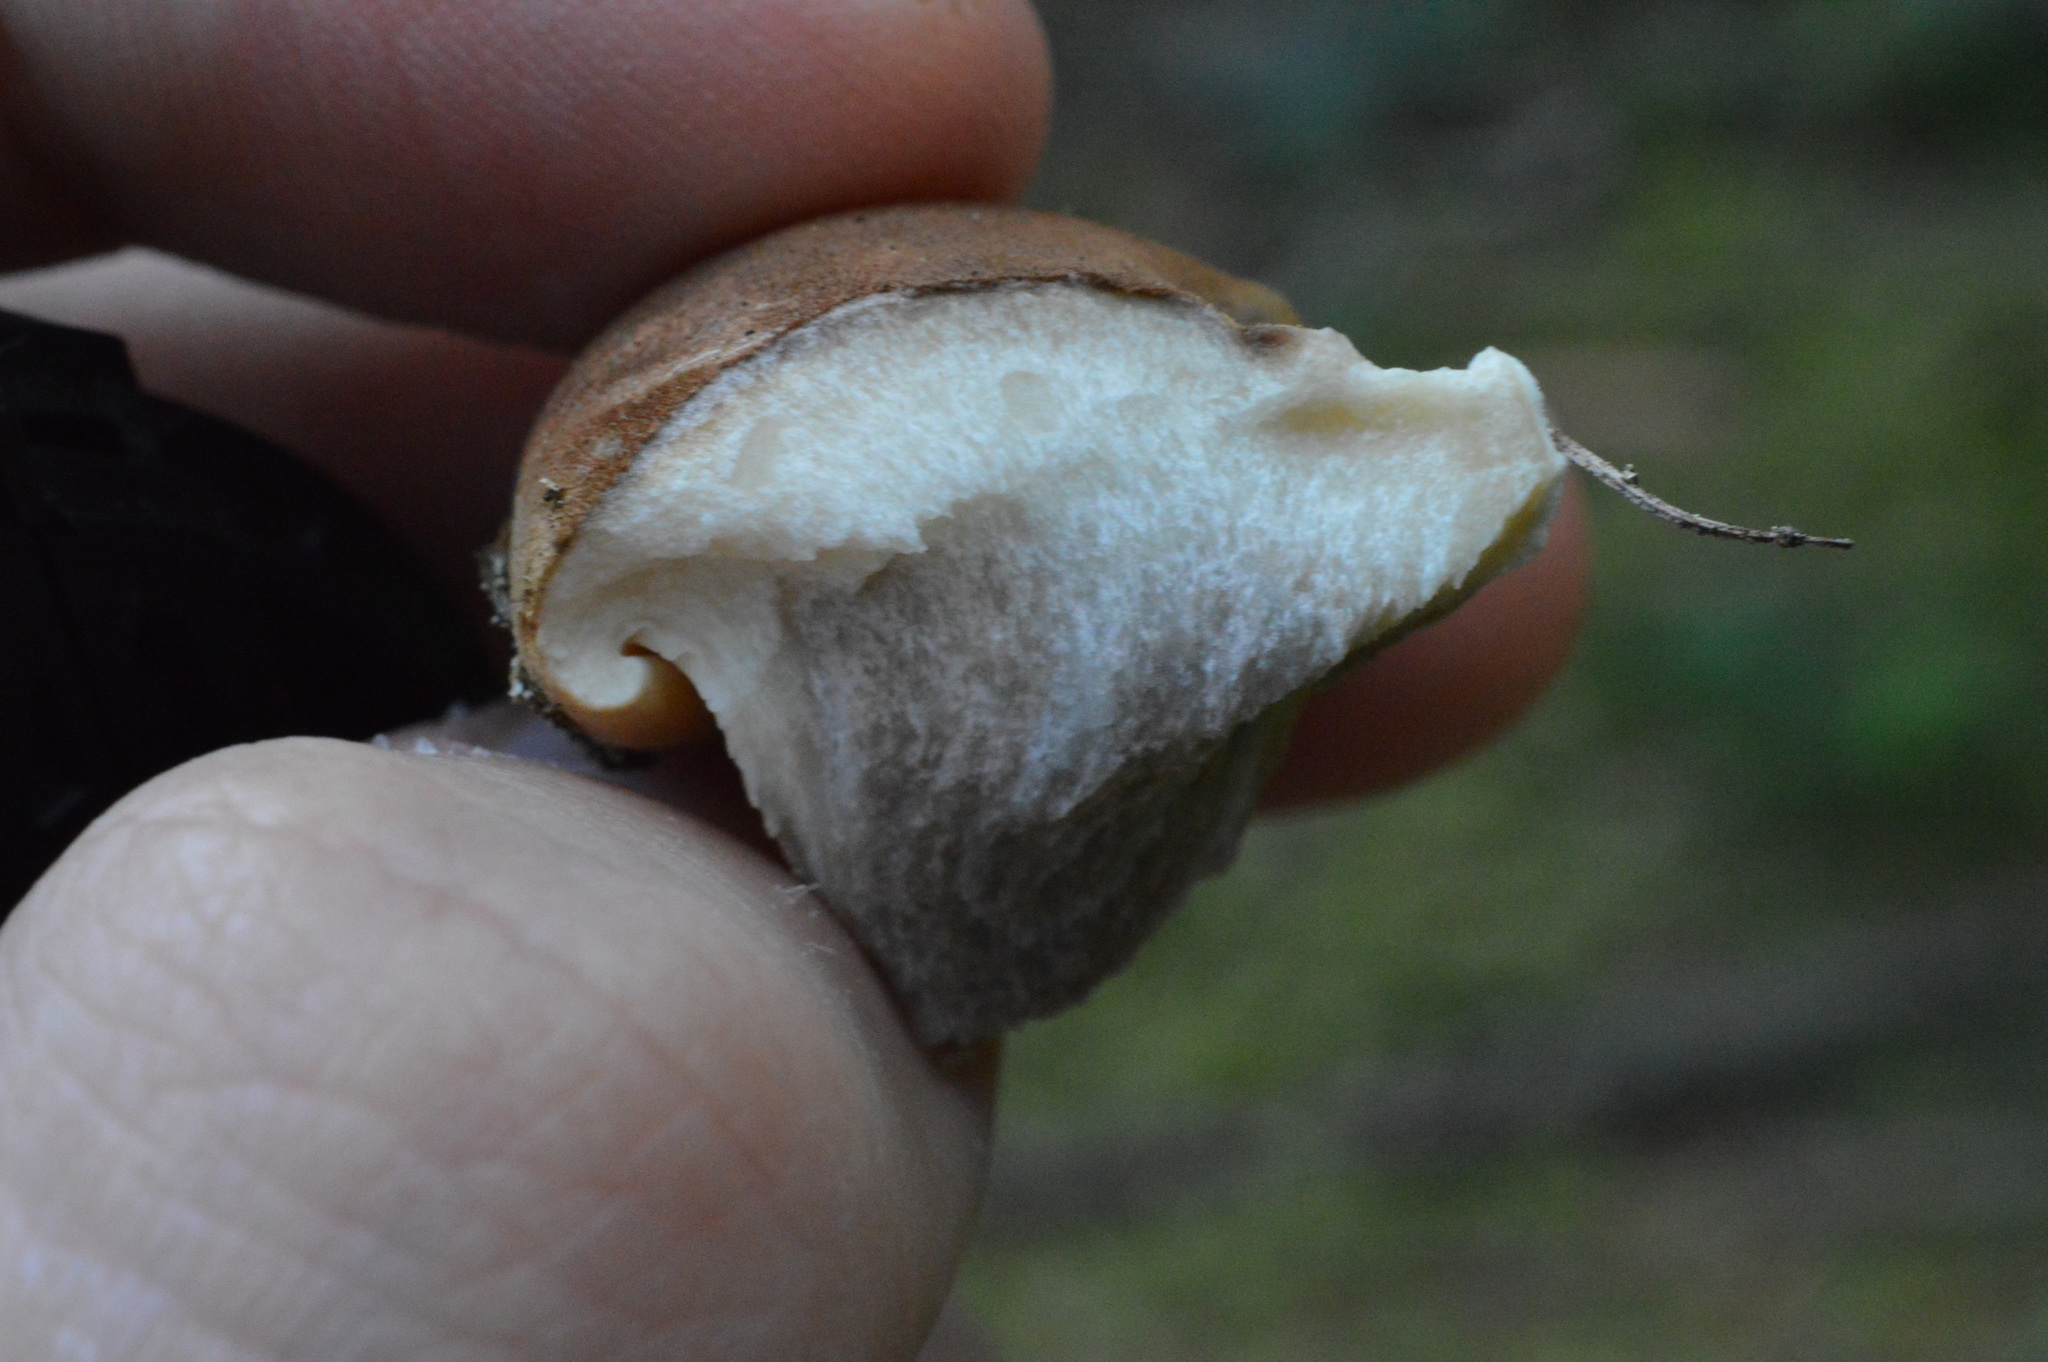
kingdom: Fungi
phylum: Basidiomycota
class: Agaricomycetes
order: Boletales
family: Tapinellaceae
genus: Tapinella
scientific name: Tapinella atrotomentosa
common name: Velvet rollrim
